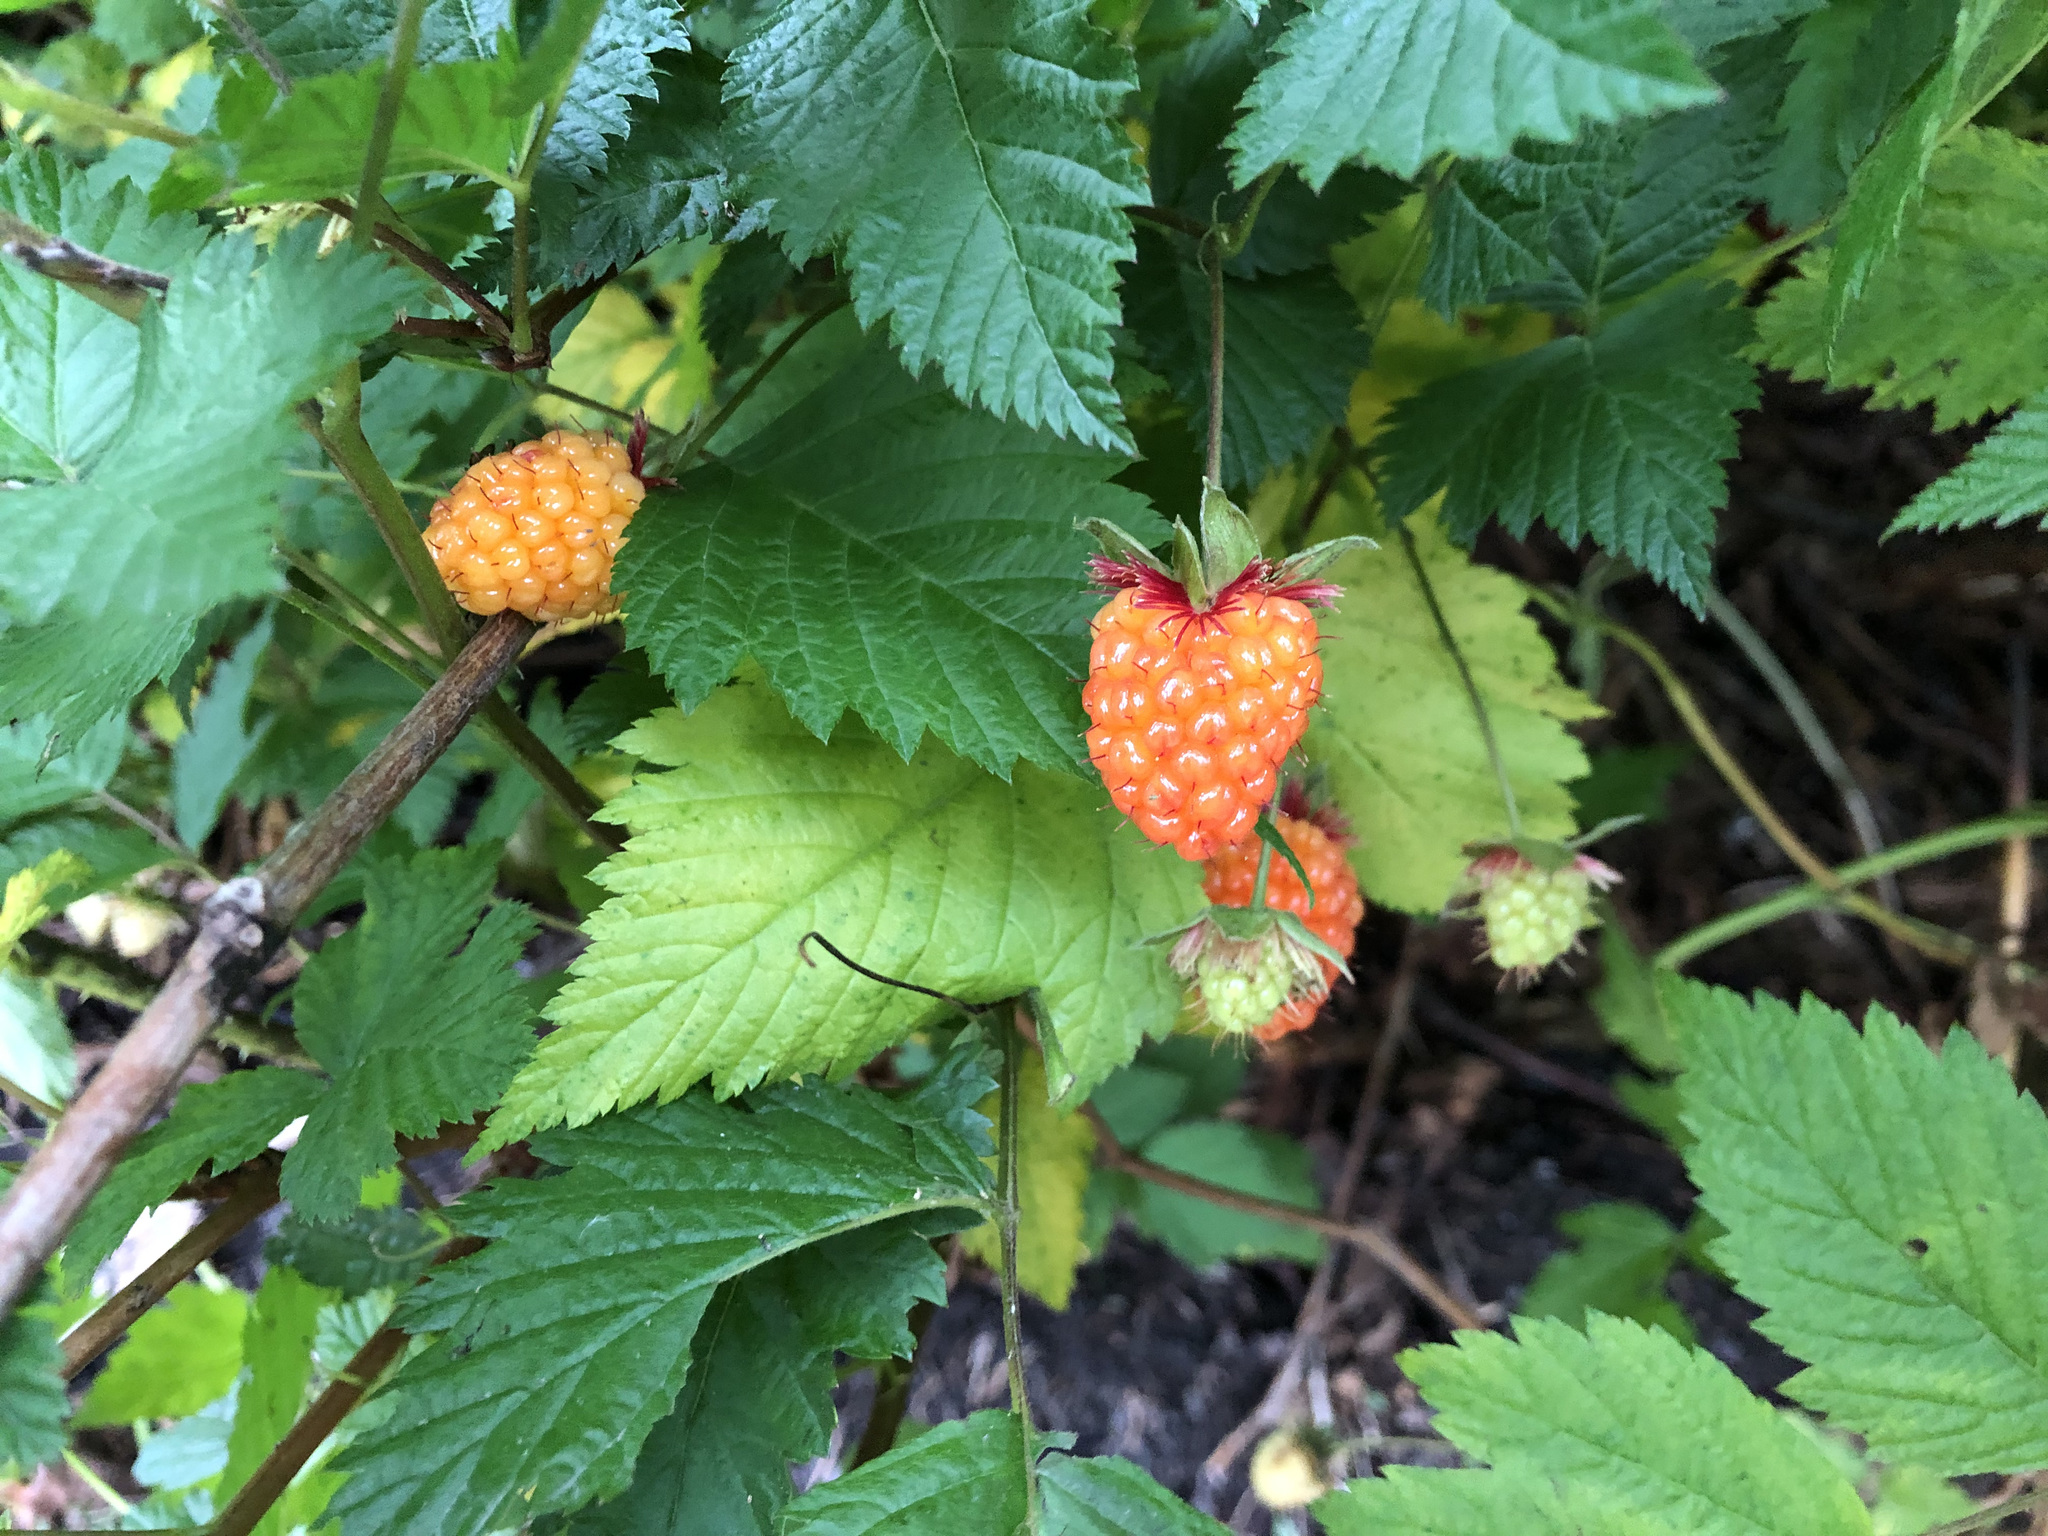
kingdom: Plantae
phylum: Tracheophyta
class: Magnoliopsida
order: Rosales
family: Rosaceae
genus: Rubus
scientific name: Rubus spectabilis
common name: Salmonberry
